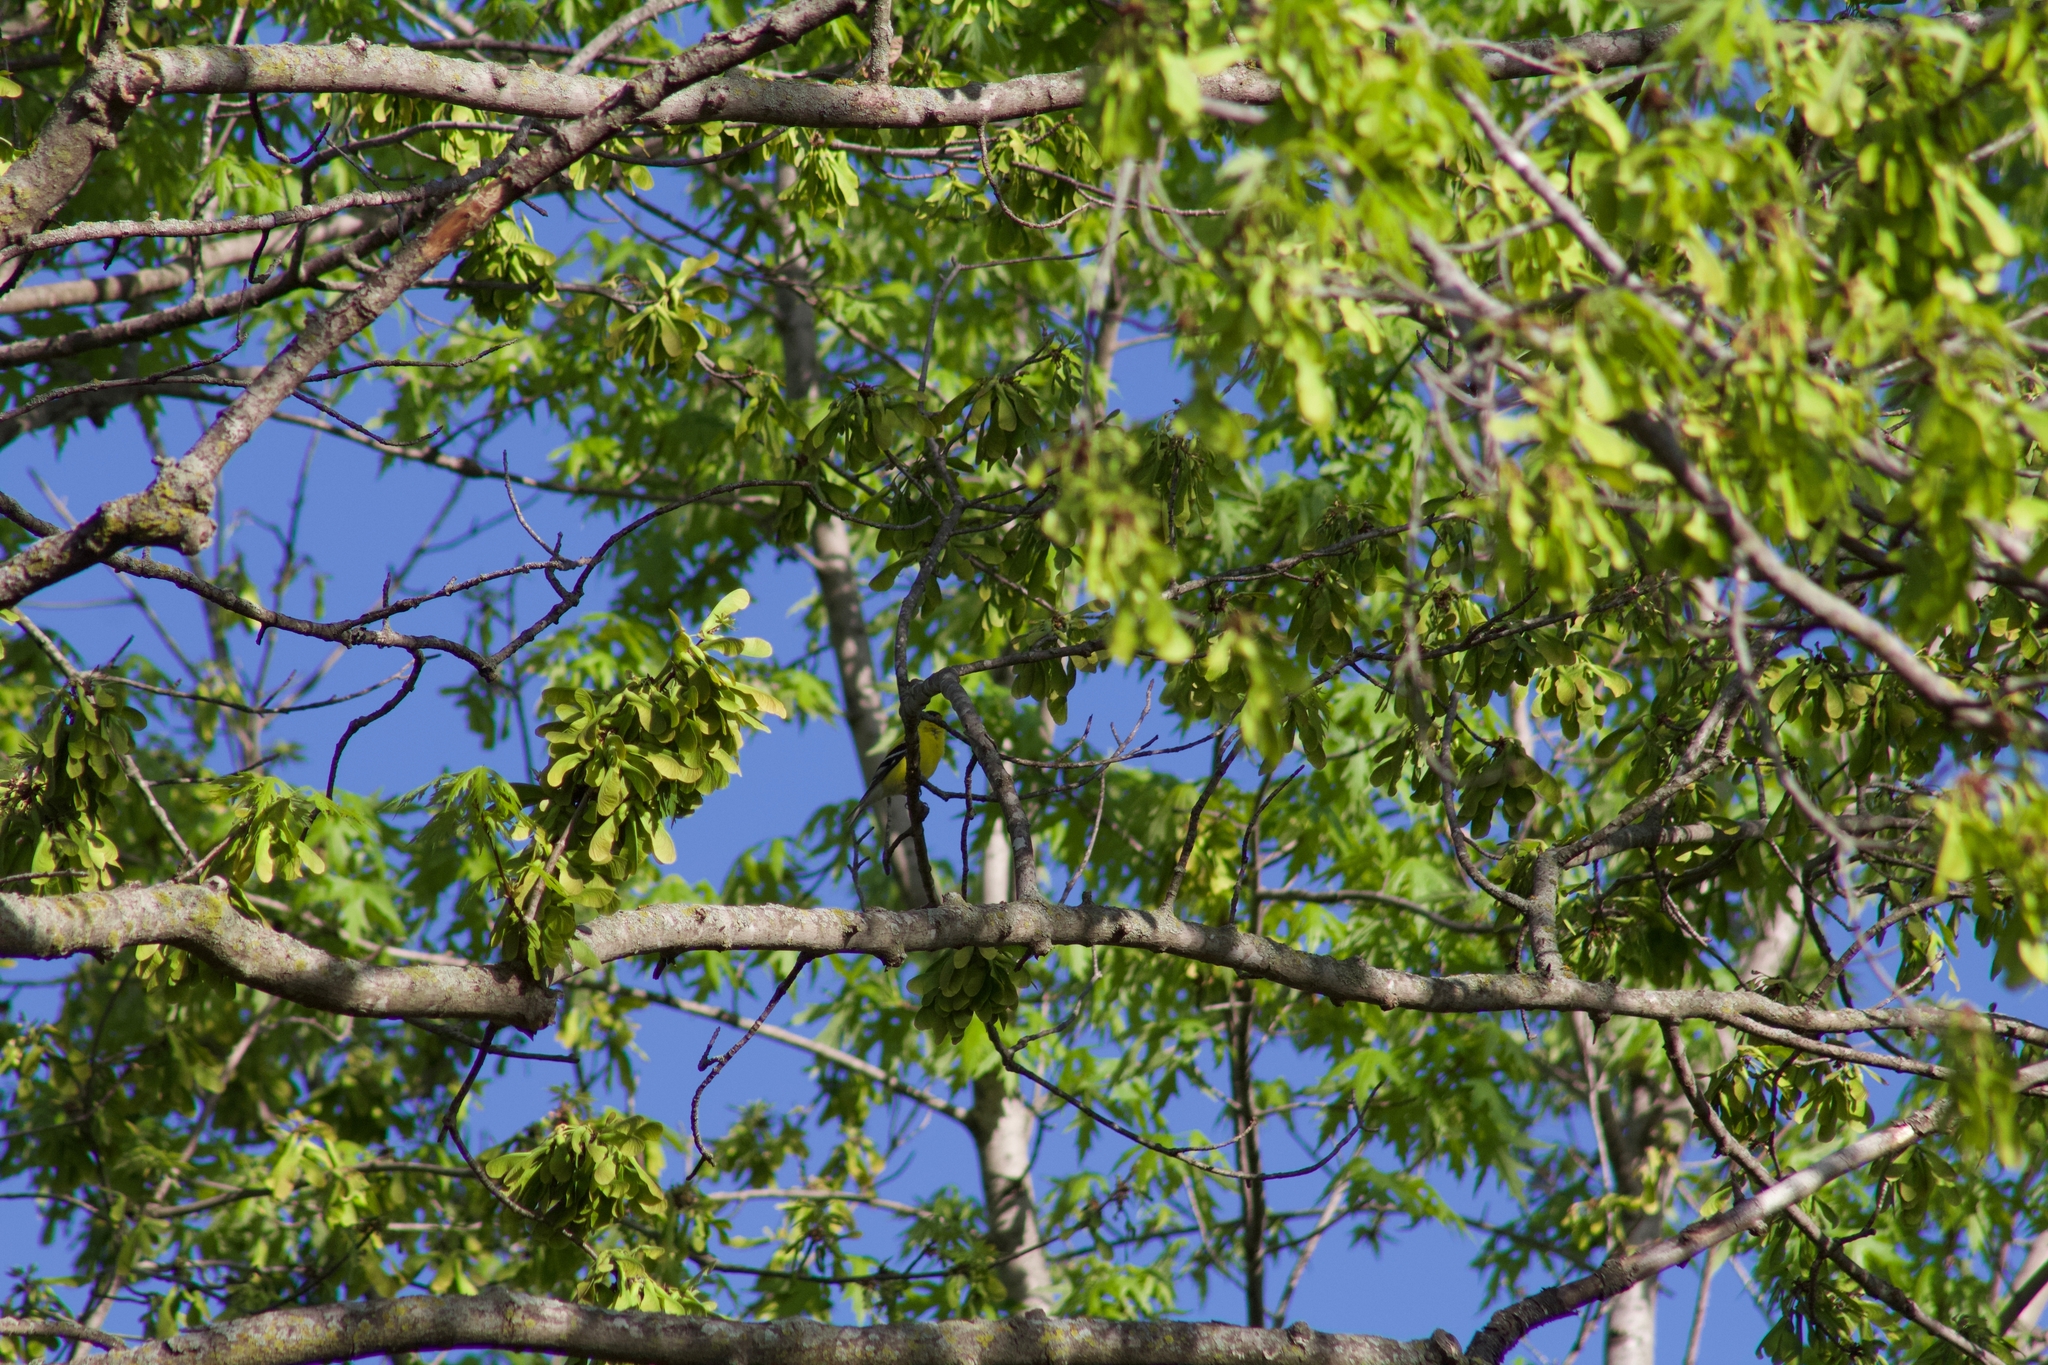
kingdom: Animalia
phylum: Chordata
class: Aves
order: Passeriformes
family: Fringillidae
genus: Spinus
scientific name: Spinus tristis
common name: American goldfinch
